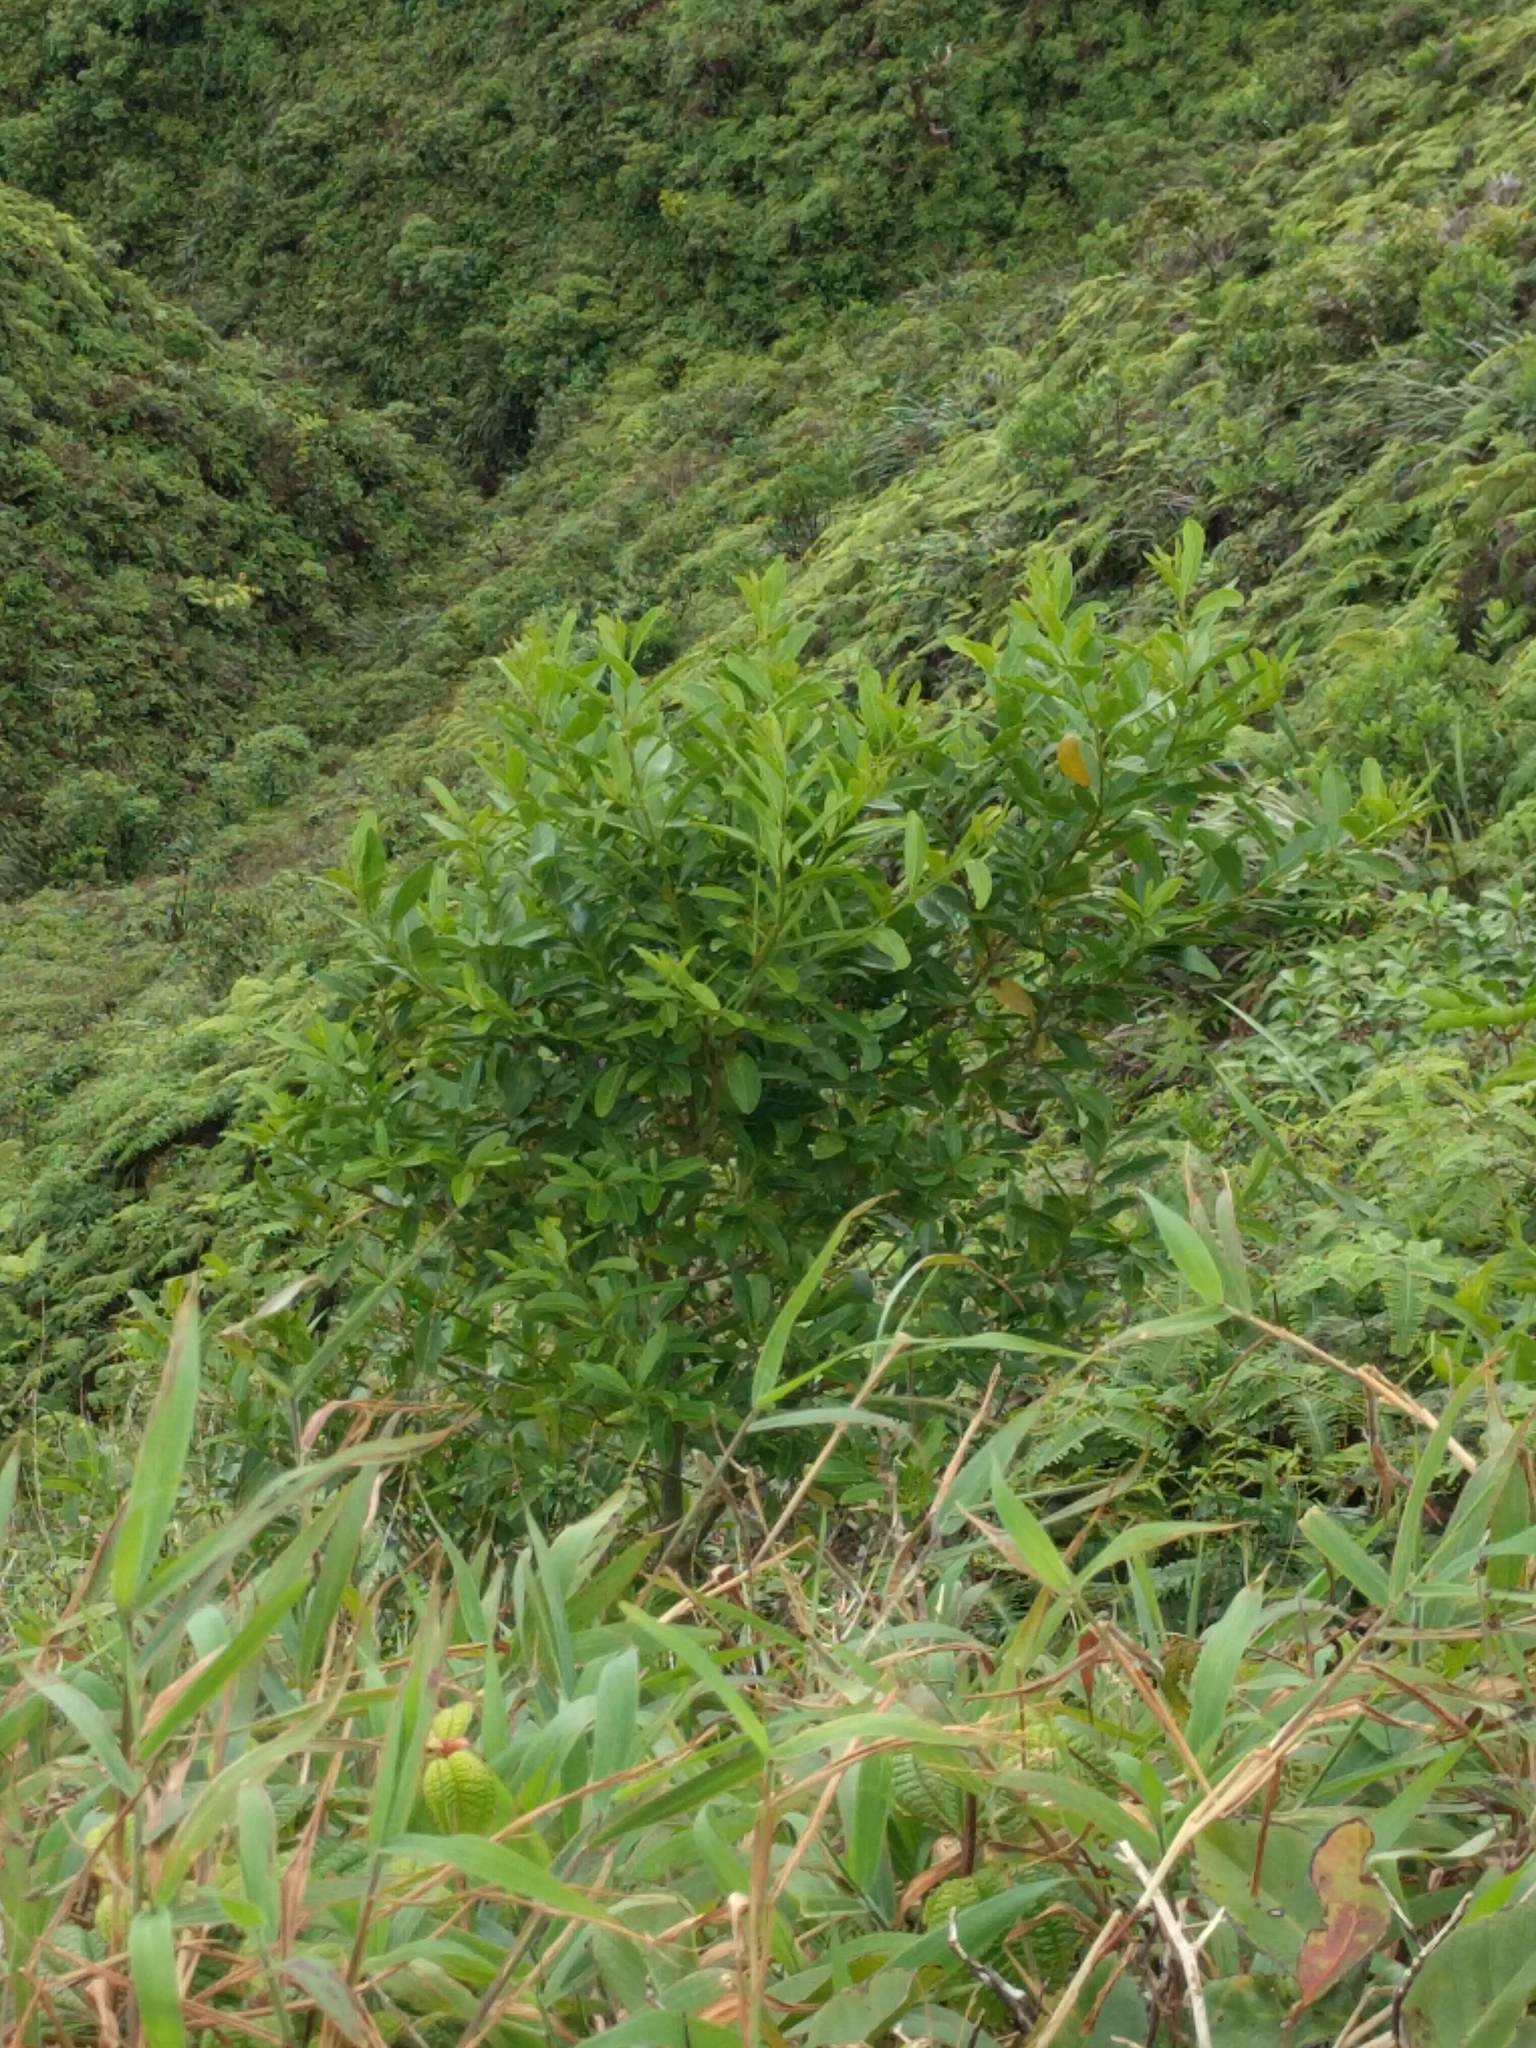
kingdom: Plantae
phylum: Tracheophyta
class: Magnoliopsida
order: Lamiales
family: Verbenaceae
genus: Citharexylum
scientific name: Citharexylum caudatum
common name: Fiddlewood
